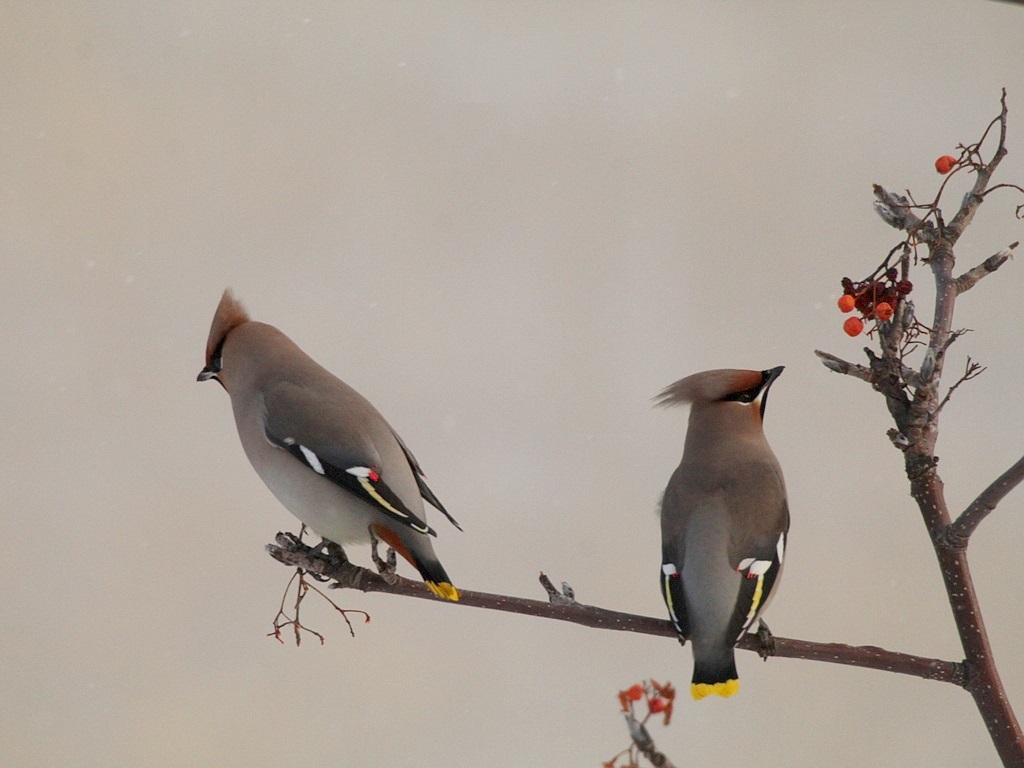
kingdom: Animalia
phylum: Chordata
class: Aves
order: Passeriformes
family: Bombycillidae
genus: Bombycilla
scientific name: Bombycilla garrulus
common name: Bohemian waxwing
